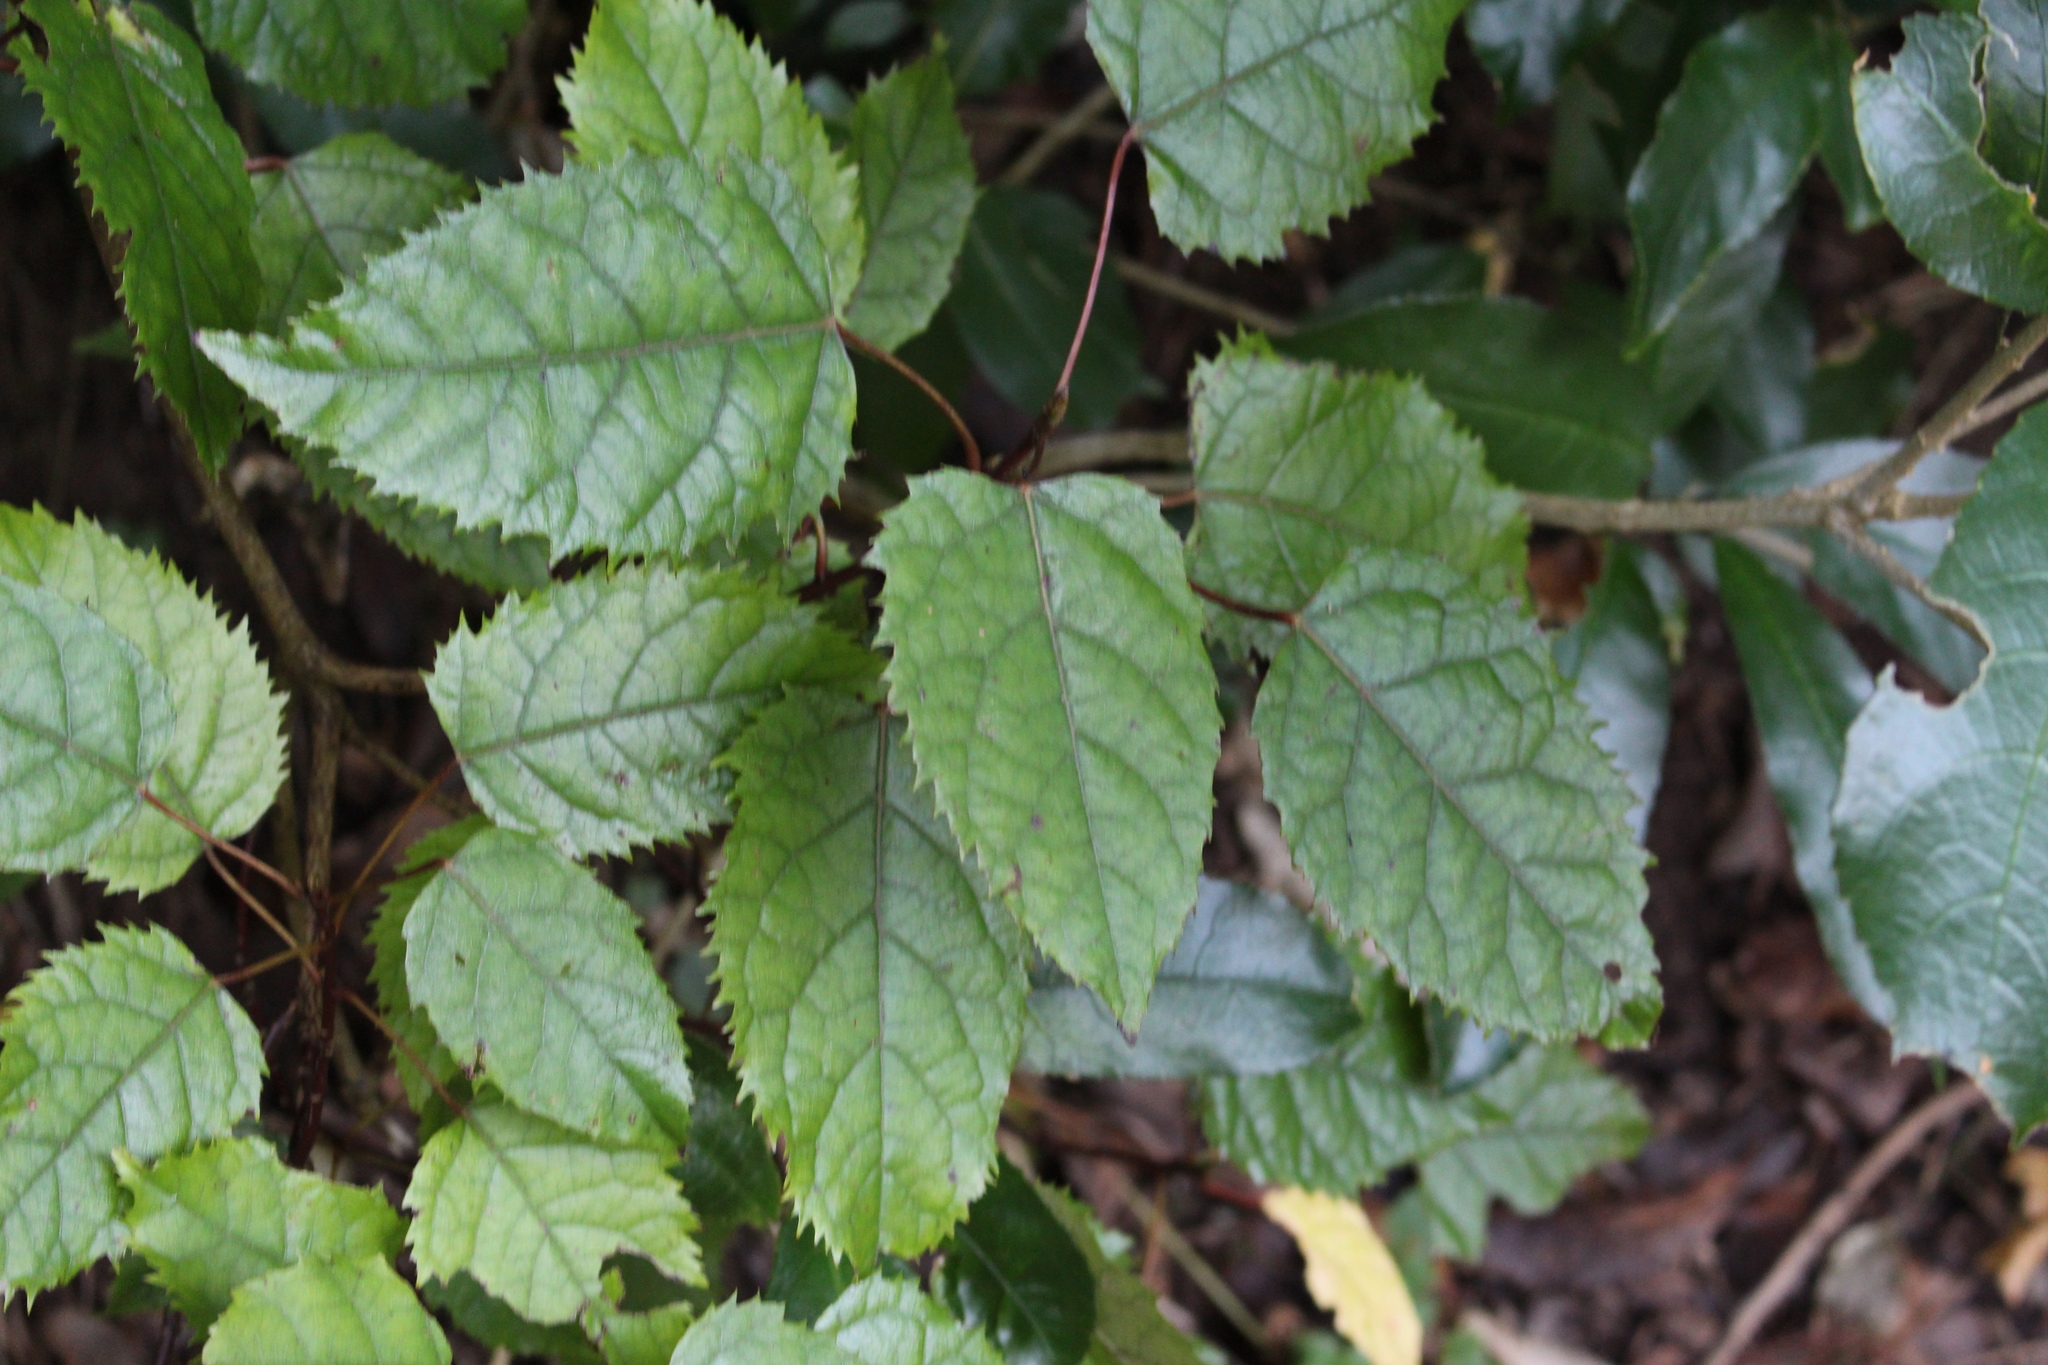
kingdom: Plantae
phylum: Tracheophyta
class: Magnoliopsida
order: Oxalidales
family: Elaeocarpaceae
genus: Aristotelia
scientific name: Aristotelia serrata
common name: New zealand wineberry
